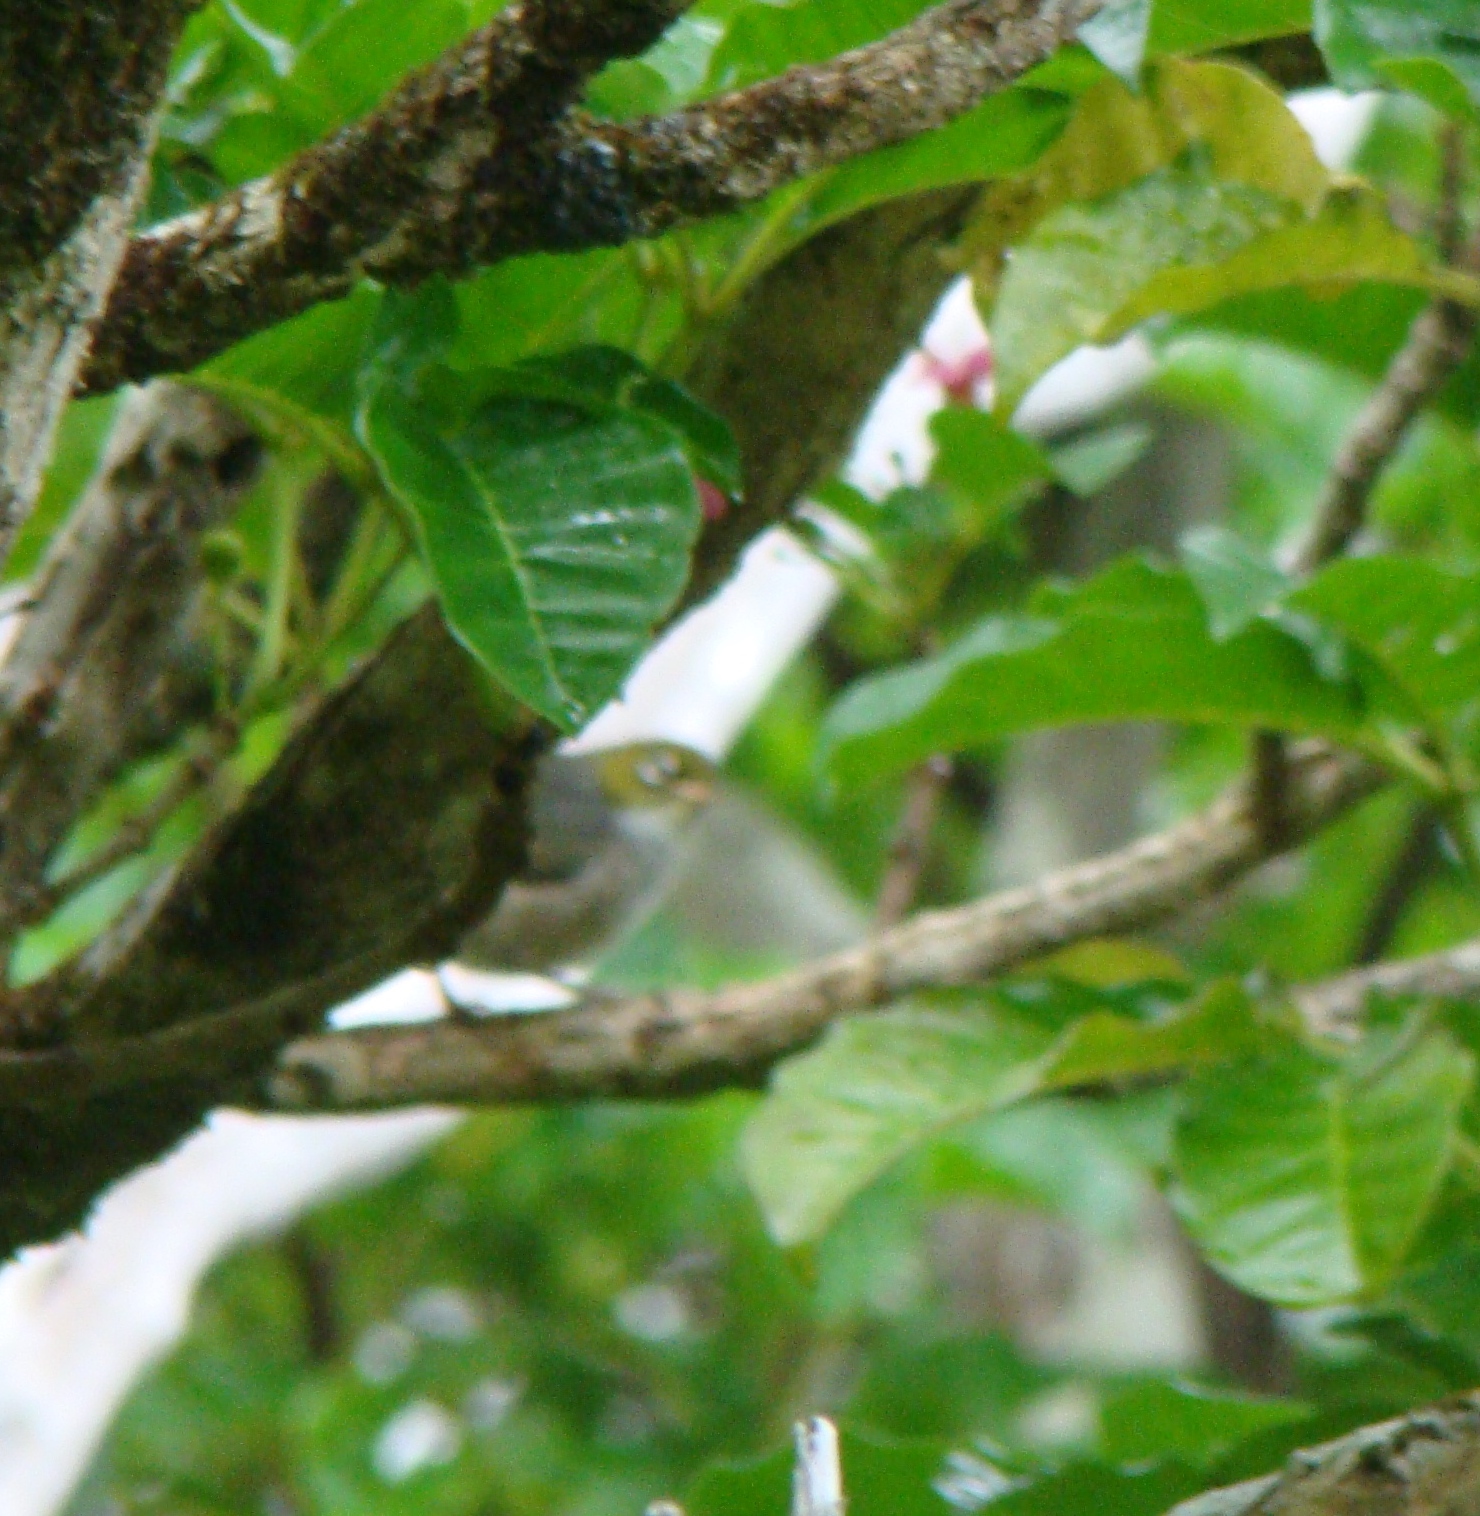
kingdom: Animalia
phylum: Chordata
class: Aves
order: Passeriformes
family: Zosteropidae
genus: Zosterops
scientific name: Zosterops lateralis
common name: Silvereye
